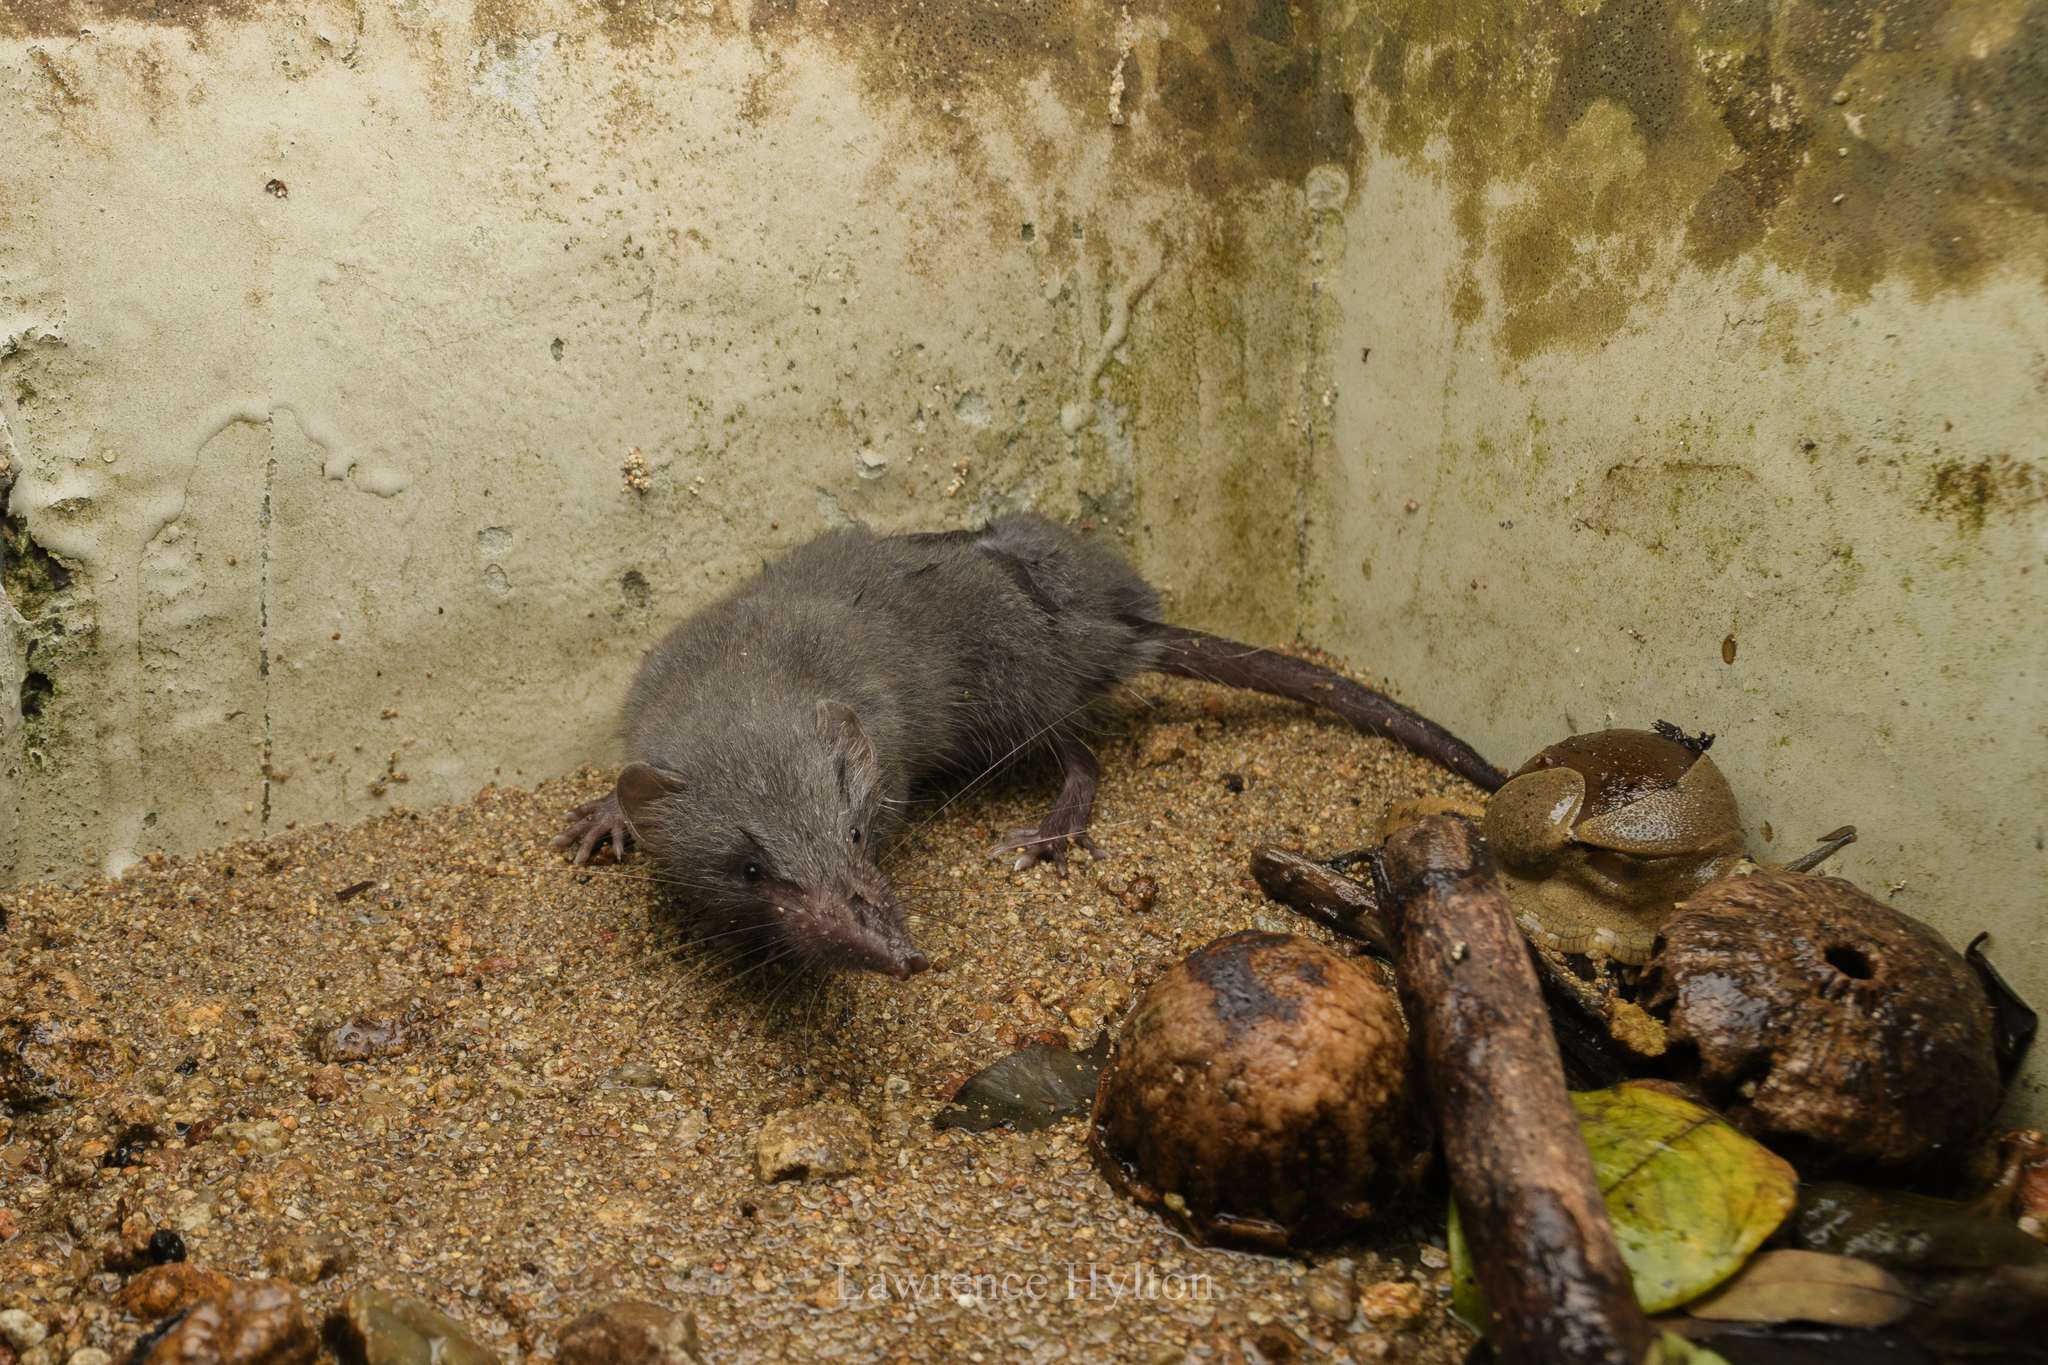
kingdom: Animalia
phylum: Chordata
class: Mammalia
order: Soricomorpha
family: Soricidae
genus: Suncus
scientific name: Suncus murinus
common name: Asian house shrew
